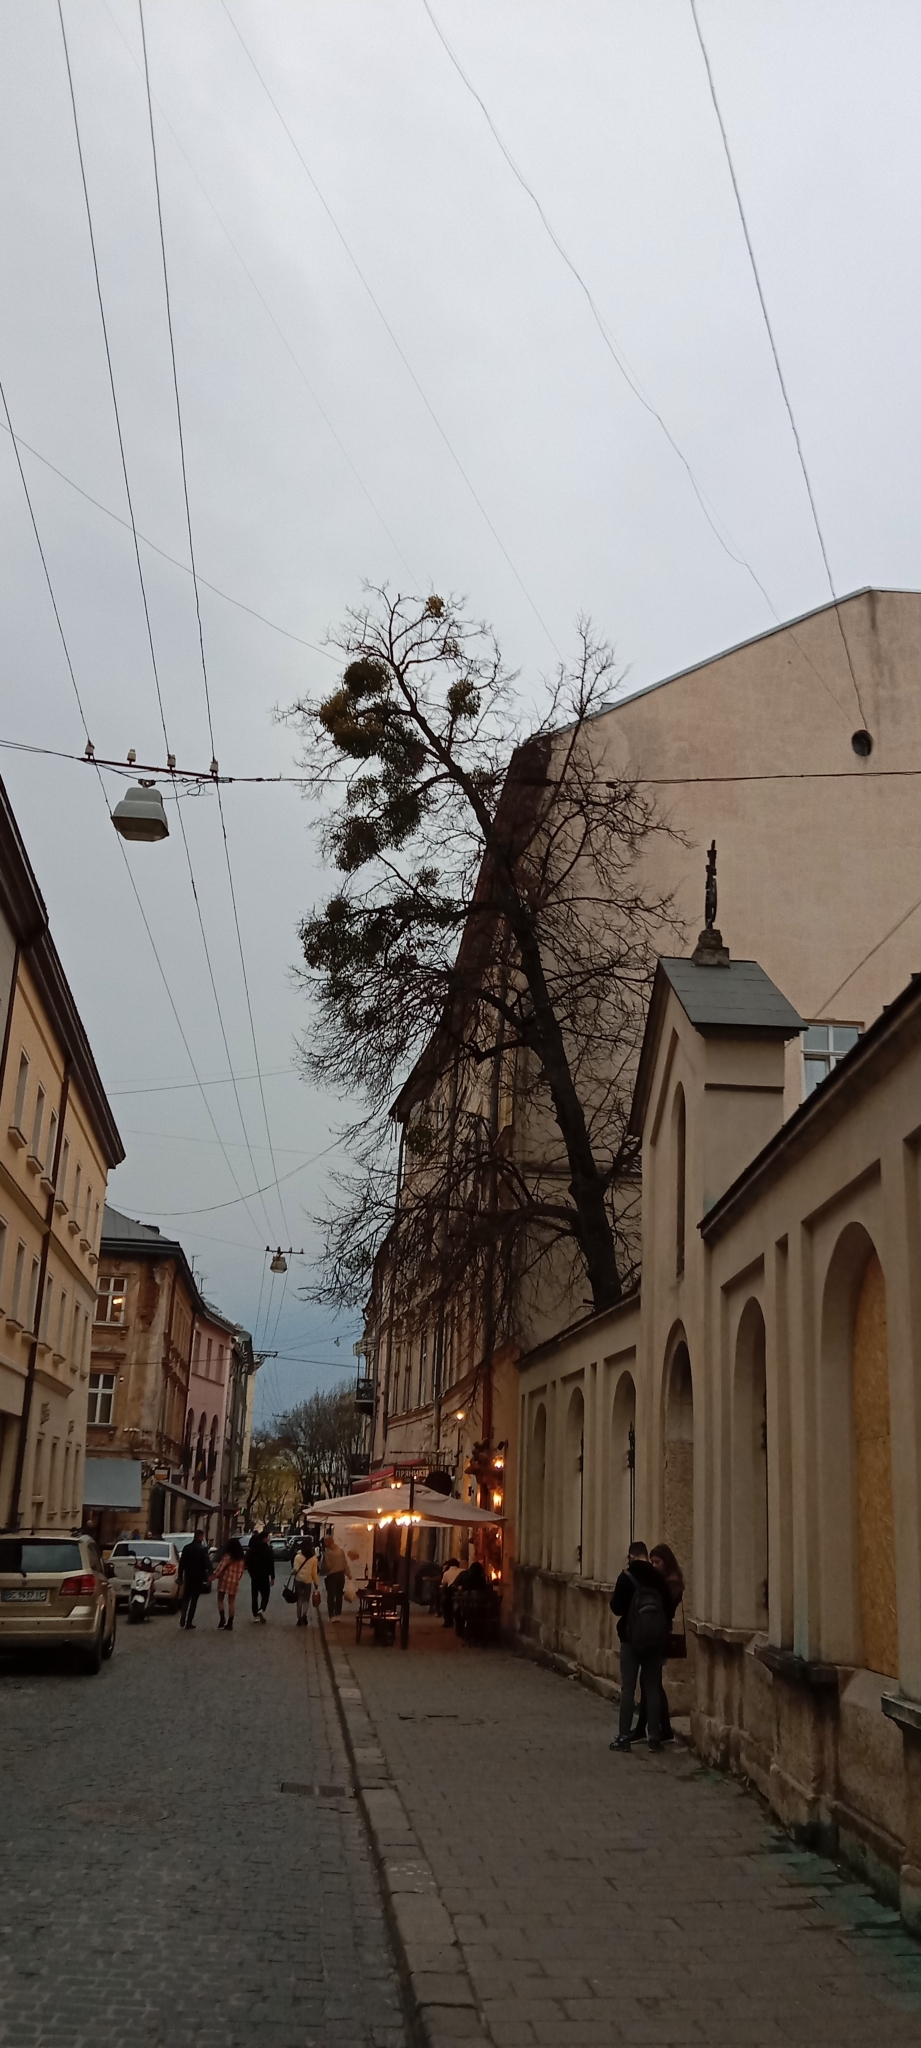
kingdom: Plantae
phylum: Tracheophyta
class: Magnoliopsida
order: Santalales
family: Viscaceae
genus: Viscum
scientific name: Viscum album
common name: Mistletoe
